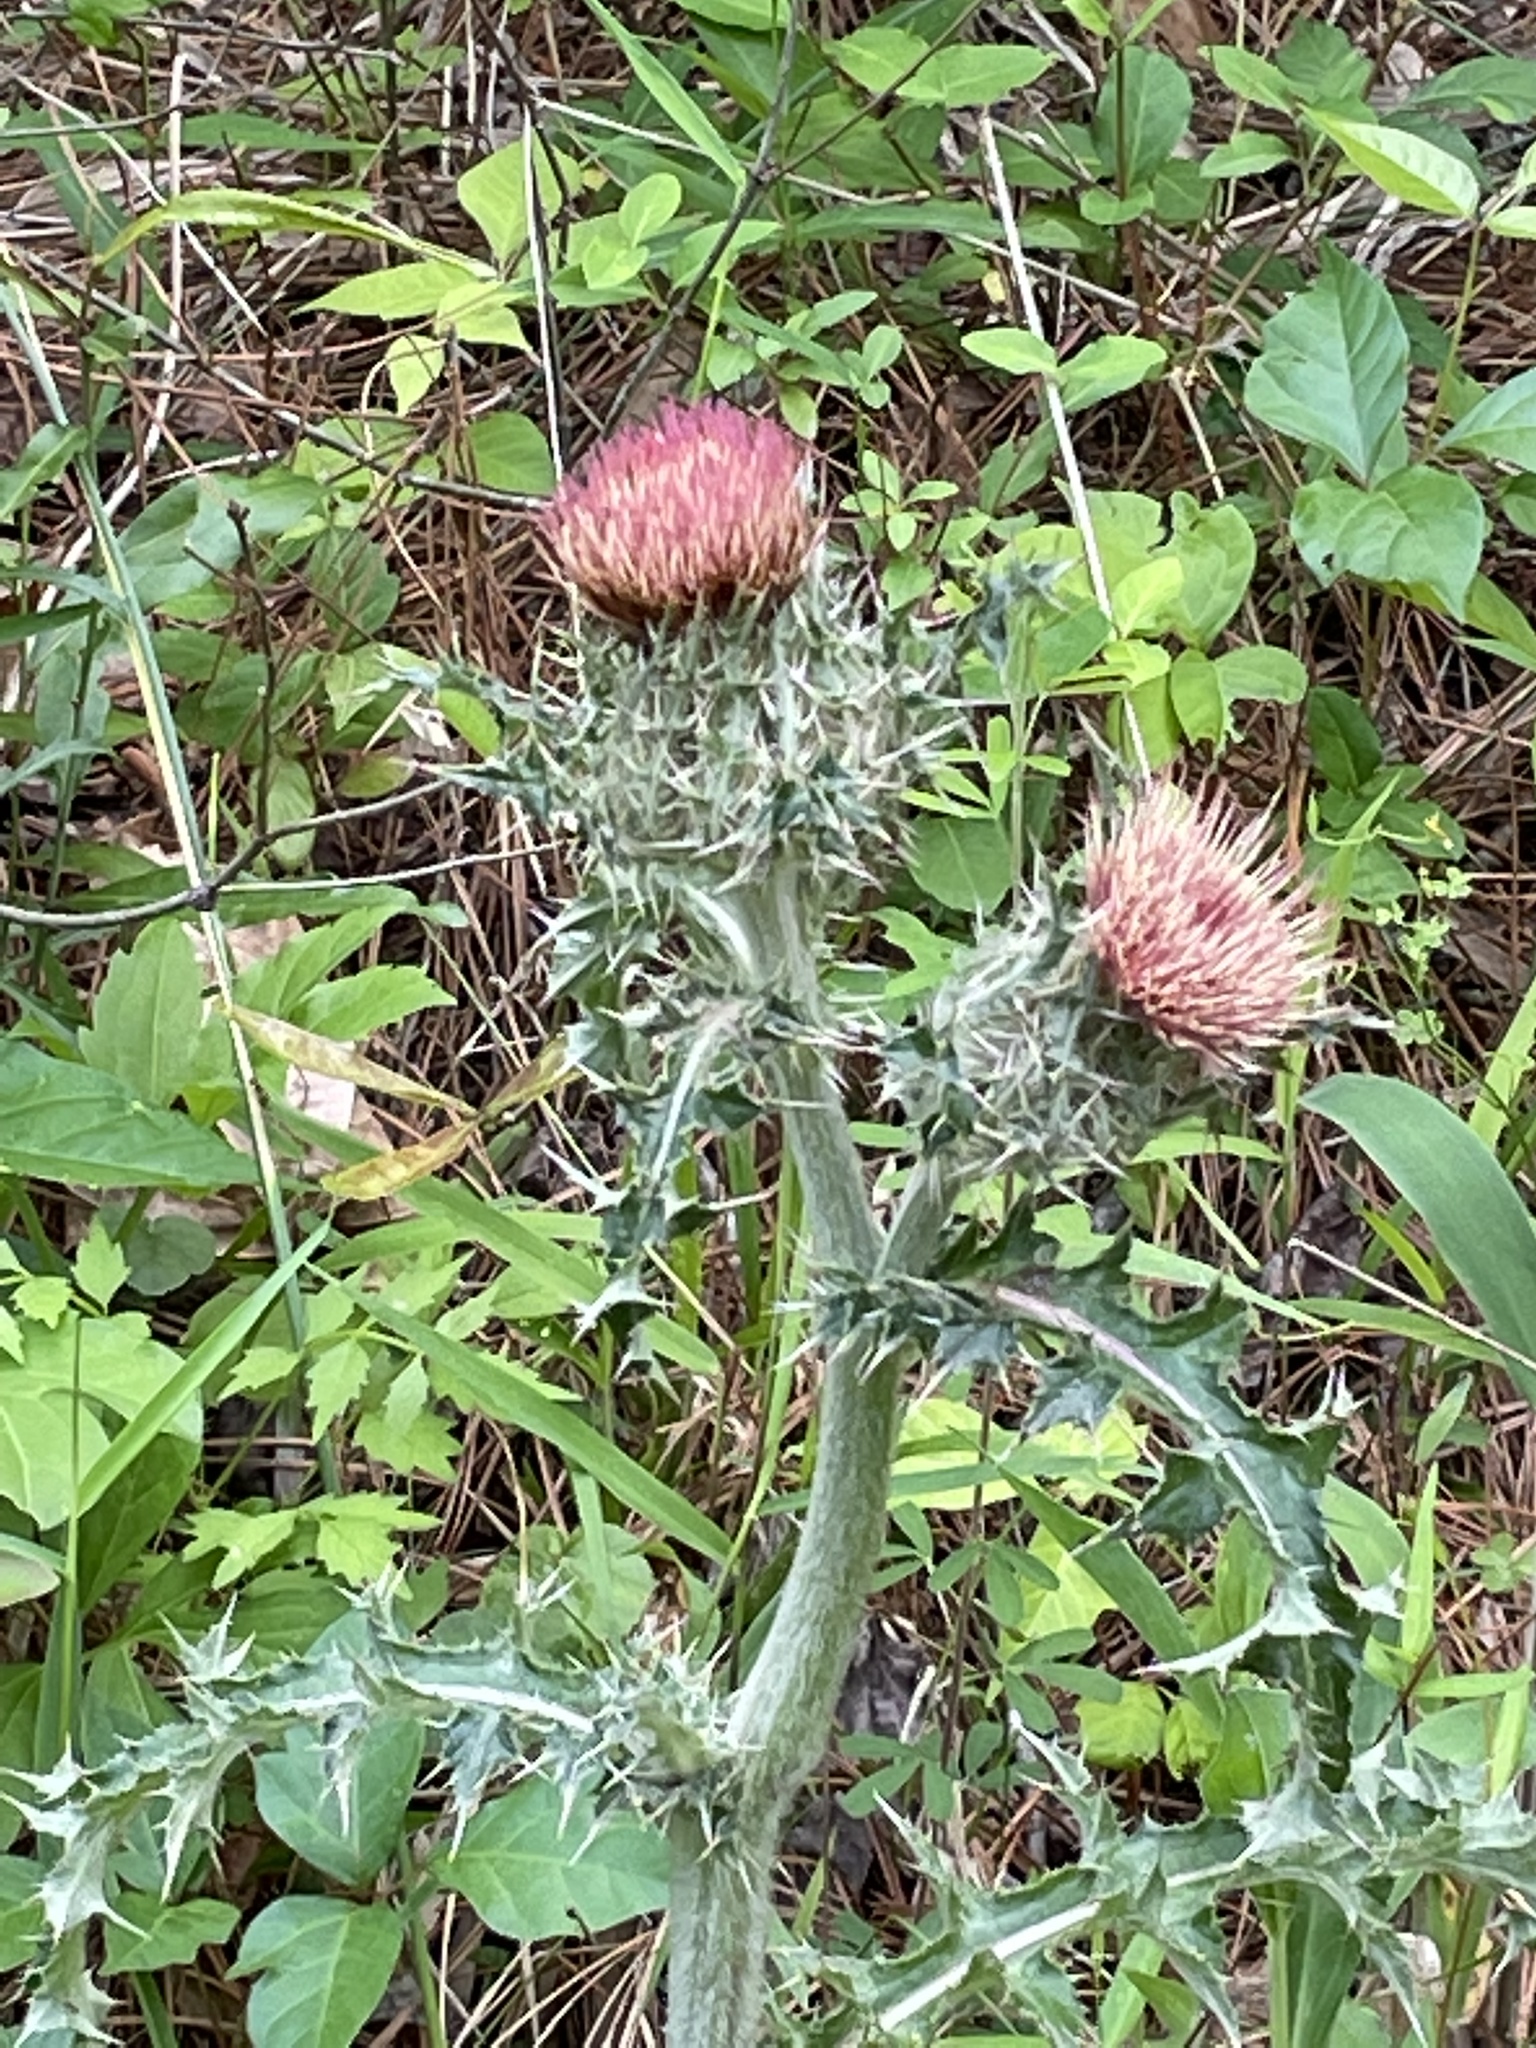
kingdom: Plantae
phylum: Tracheophyta
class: Magnoliopsida
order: Asterales
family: Asteraceae
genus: Cirsium
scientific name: Cirsium horridulum
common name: Bristly thistle
